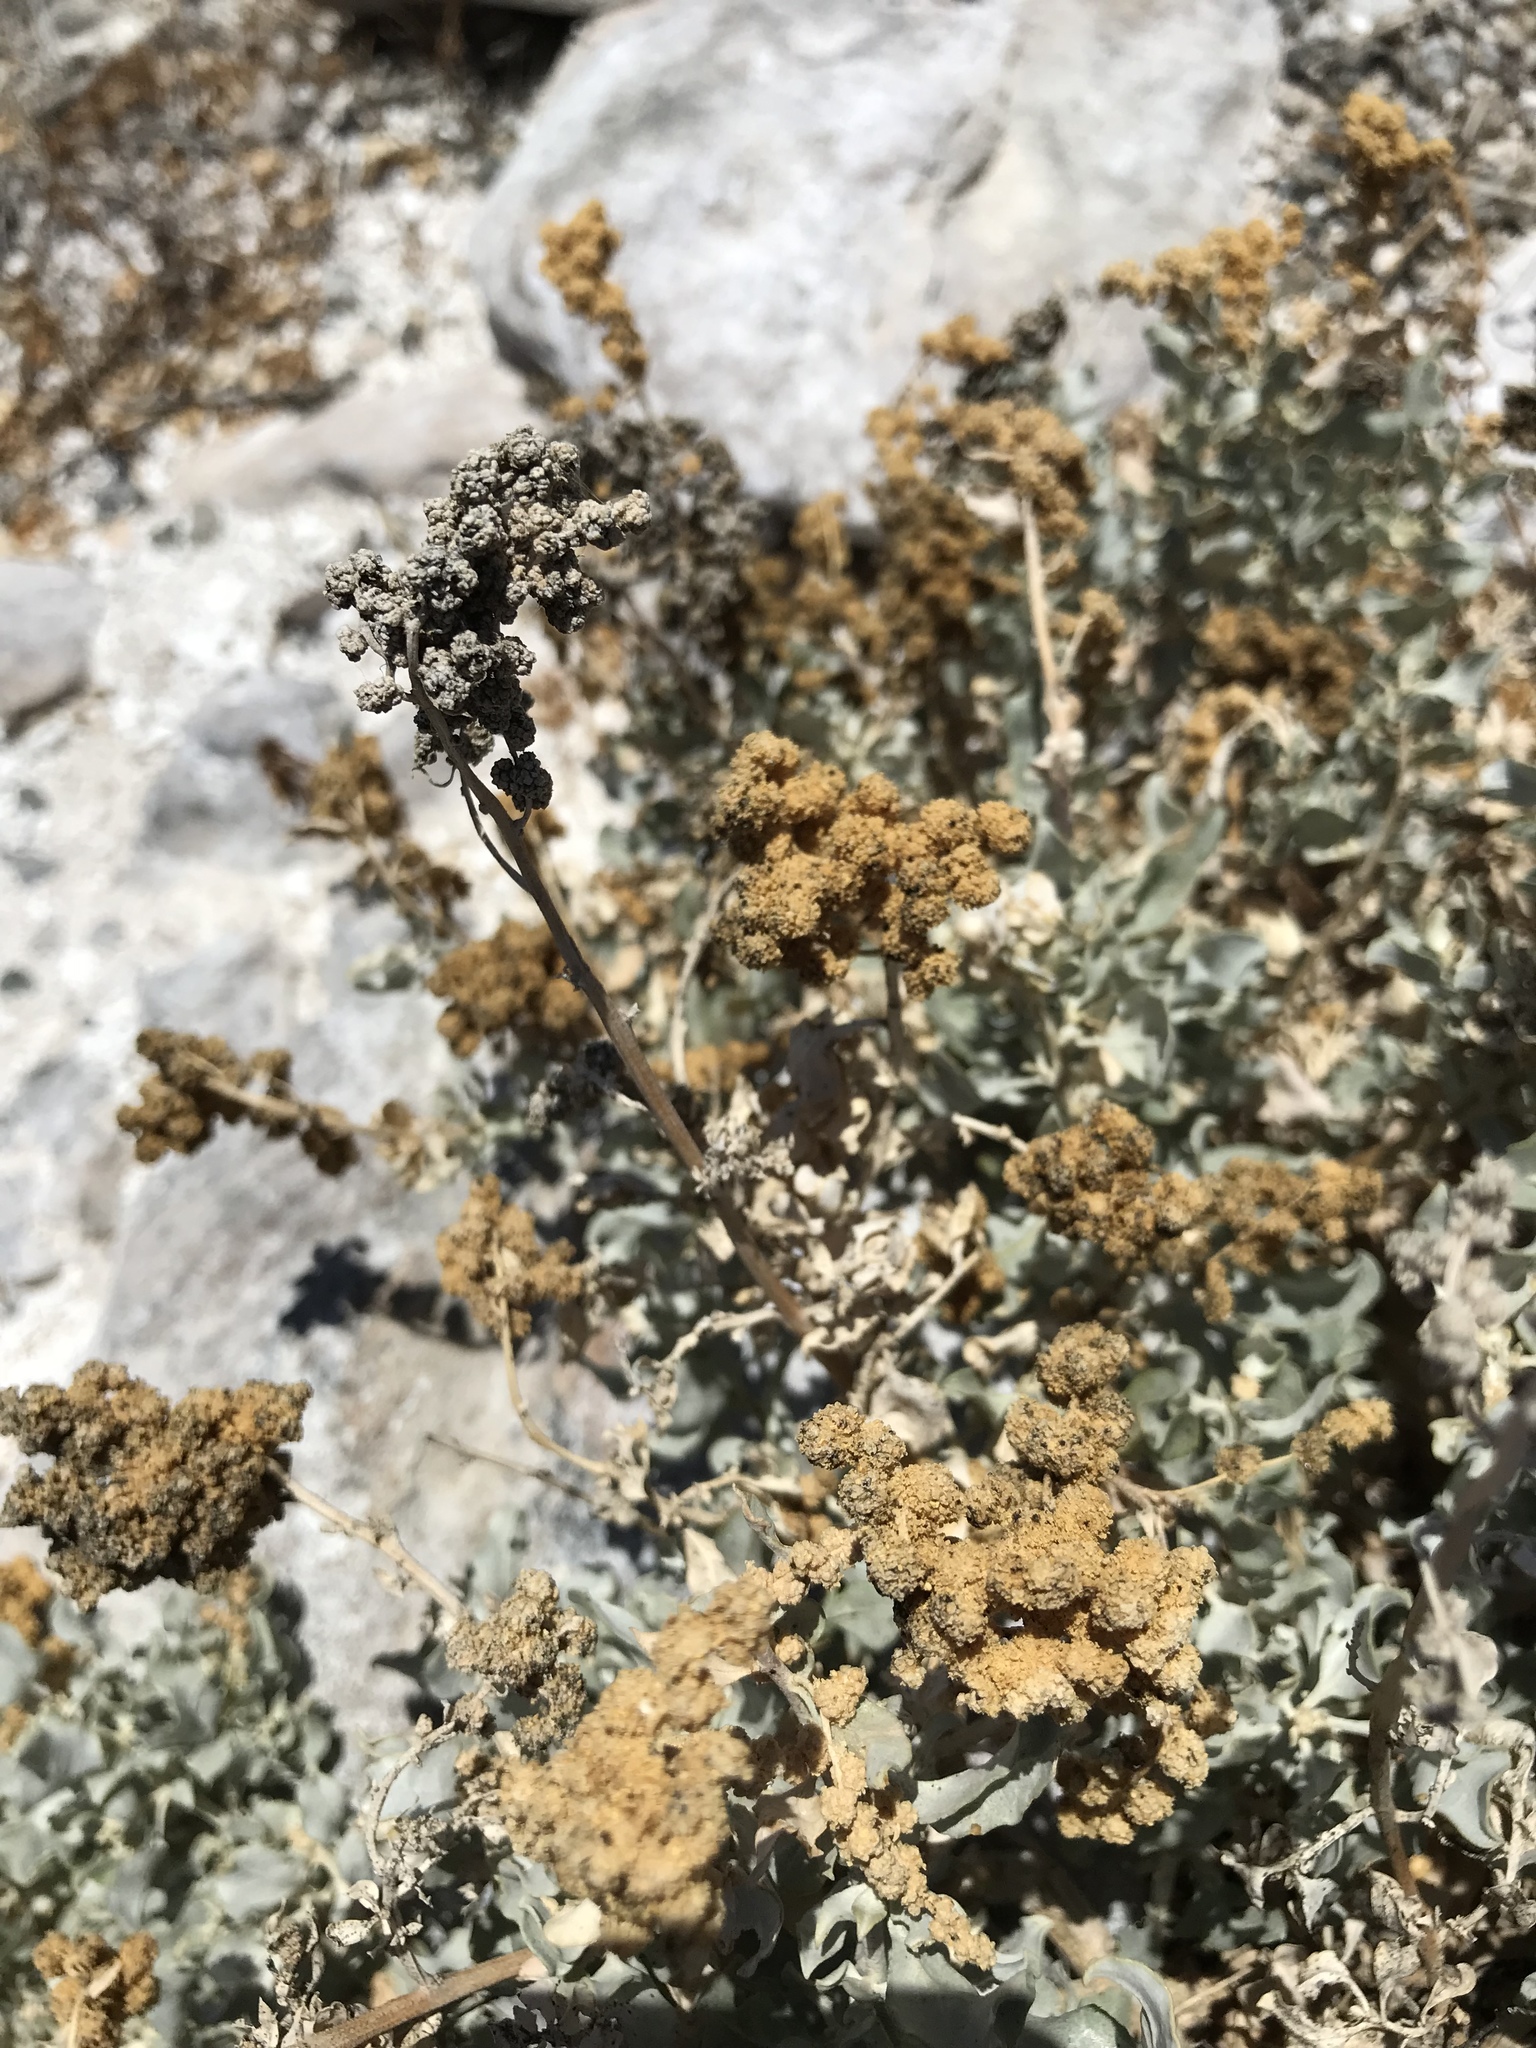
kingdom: Plantae
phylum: Tracheophyta
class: Magnoliopsida
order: Caryophyllales
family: Amaranthaceae
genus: Atriplex
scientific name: Atriplex barclayana
